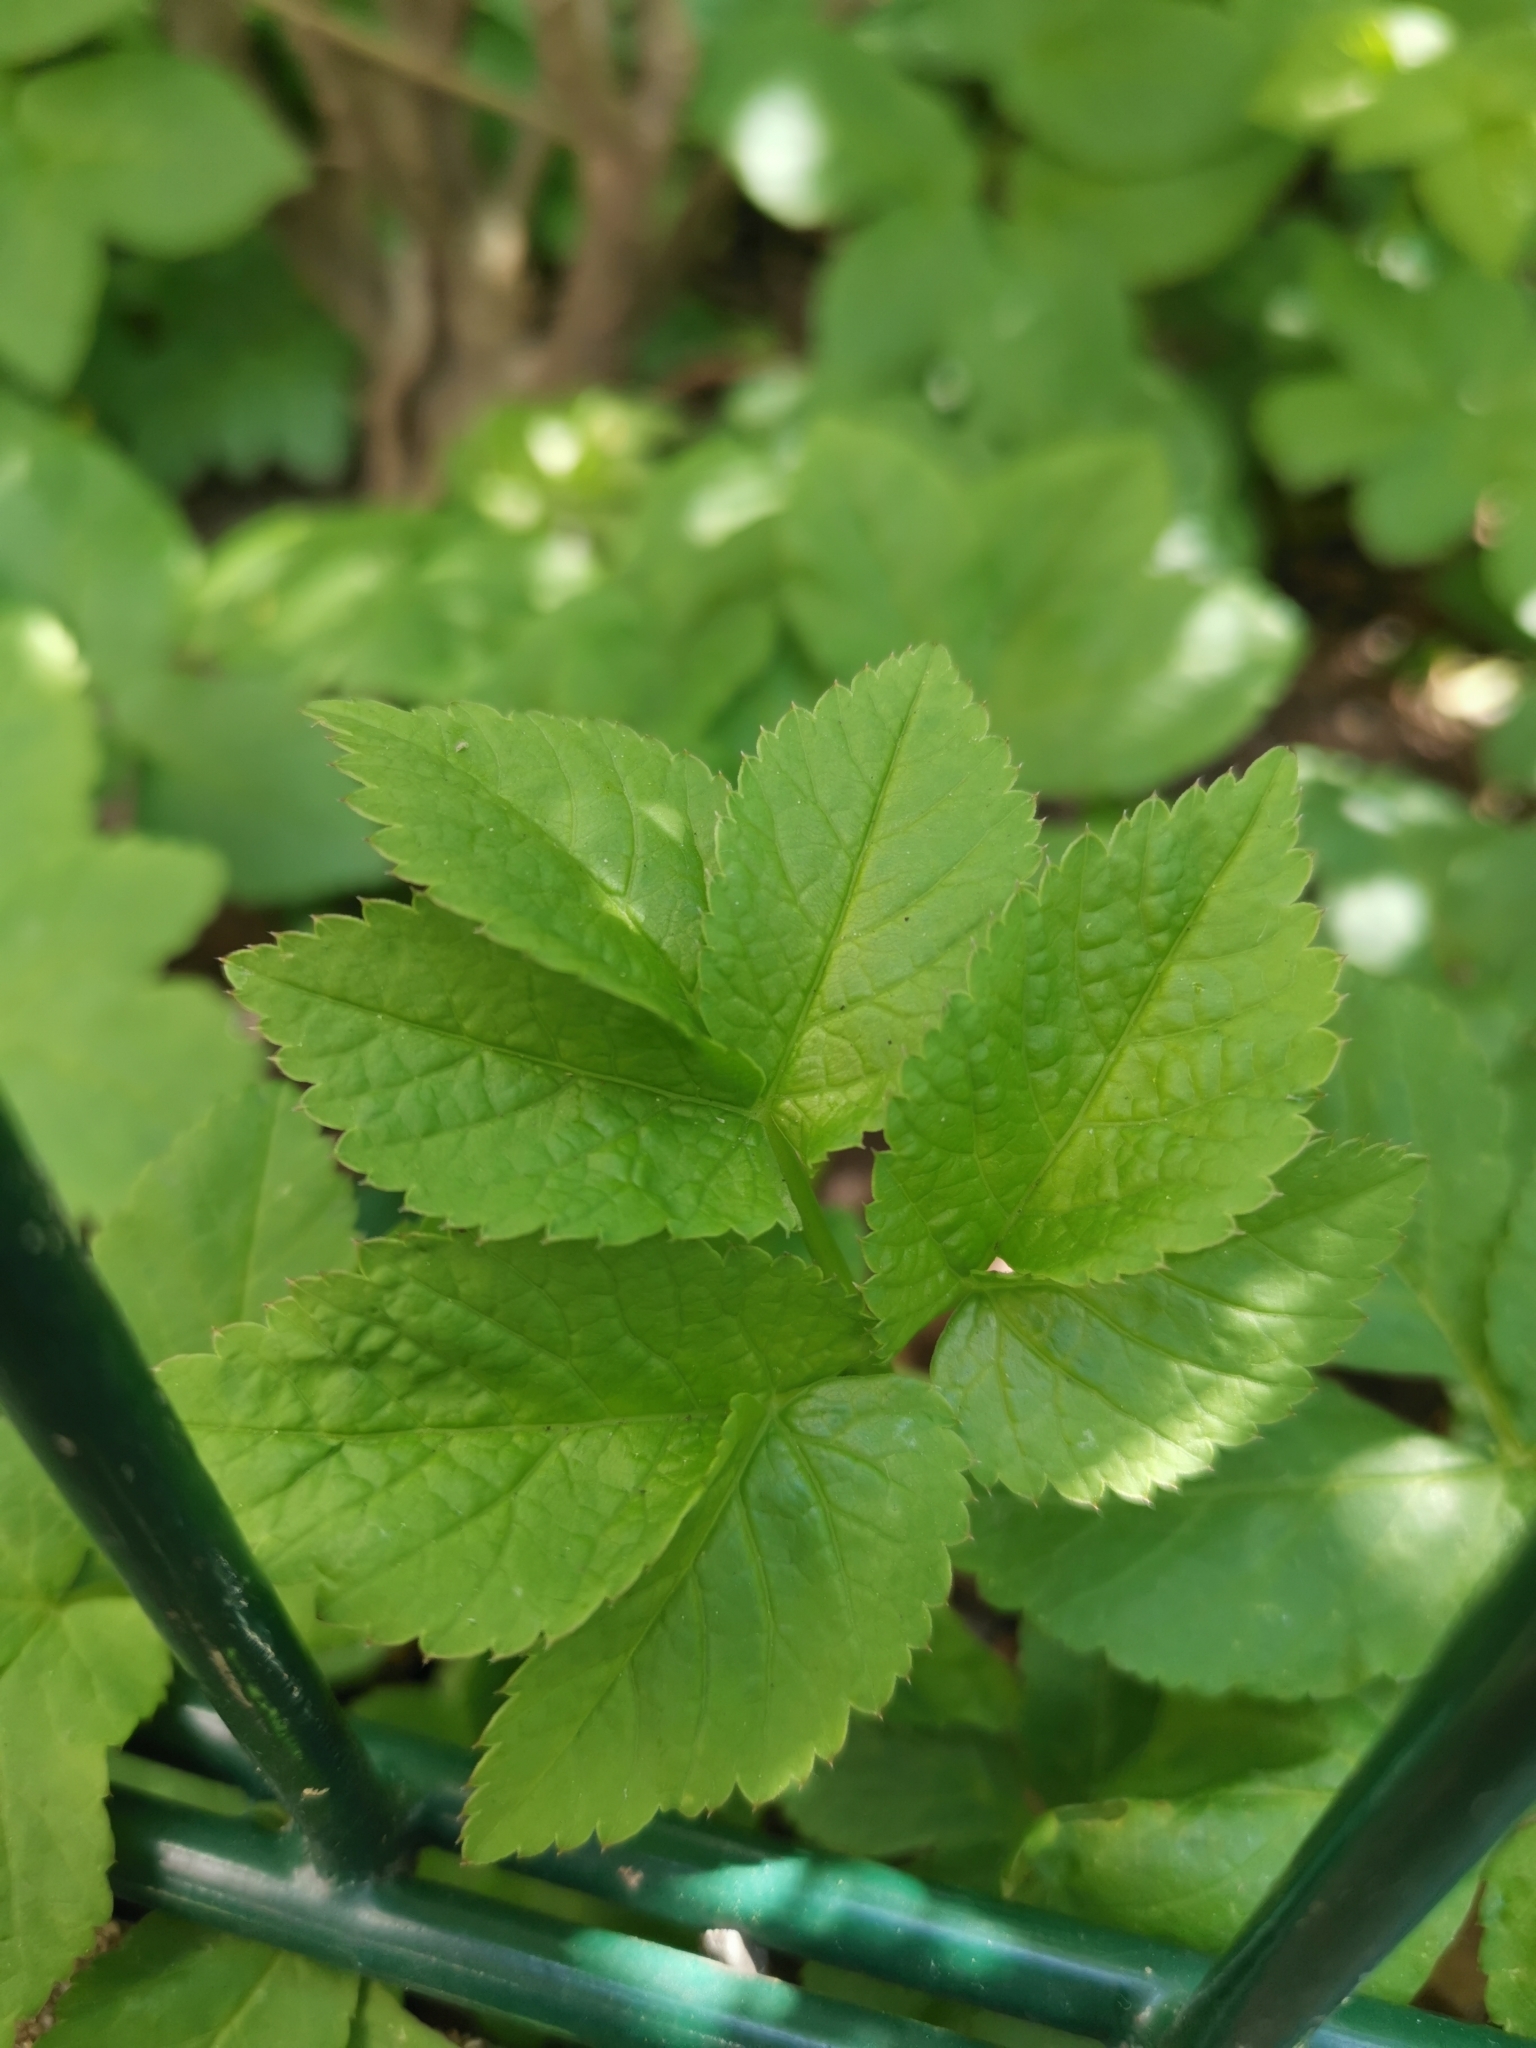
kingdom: Plantae
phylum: Tracheophyta
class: Magnoliopsida
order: Apiales
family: Apiaceae
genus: Aegopodium
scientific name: Aegopodium podagraria
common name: Ground-elder
